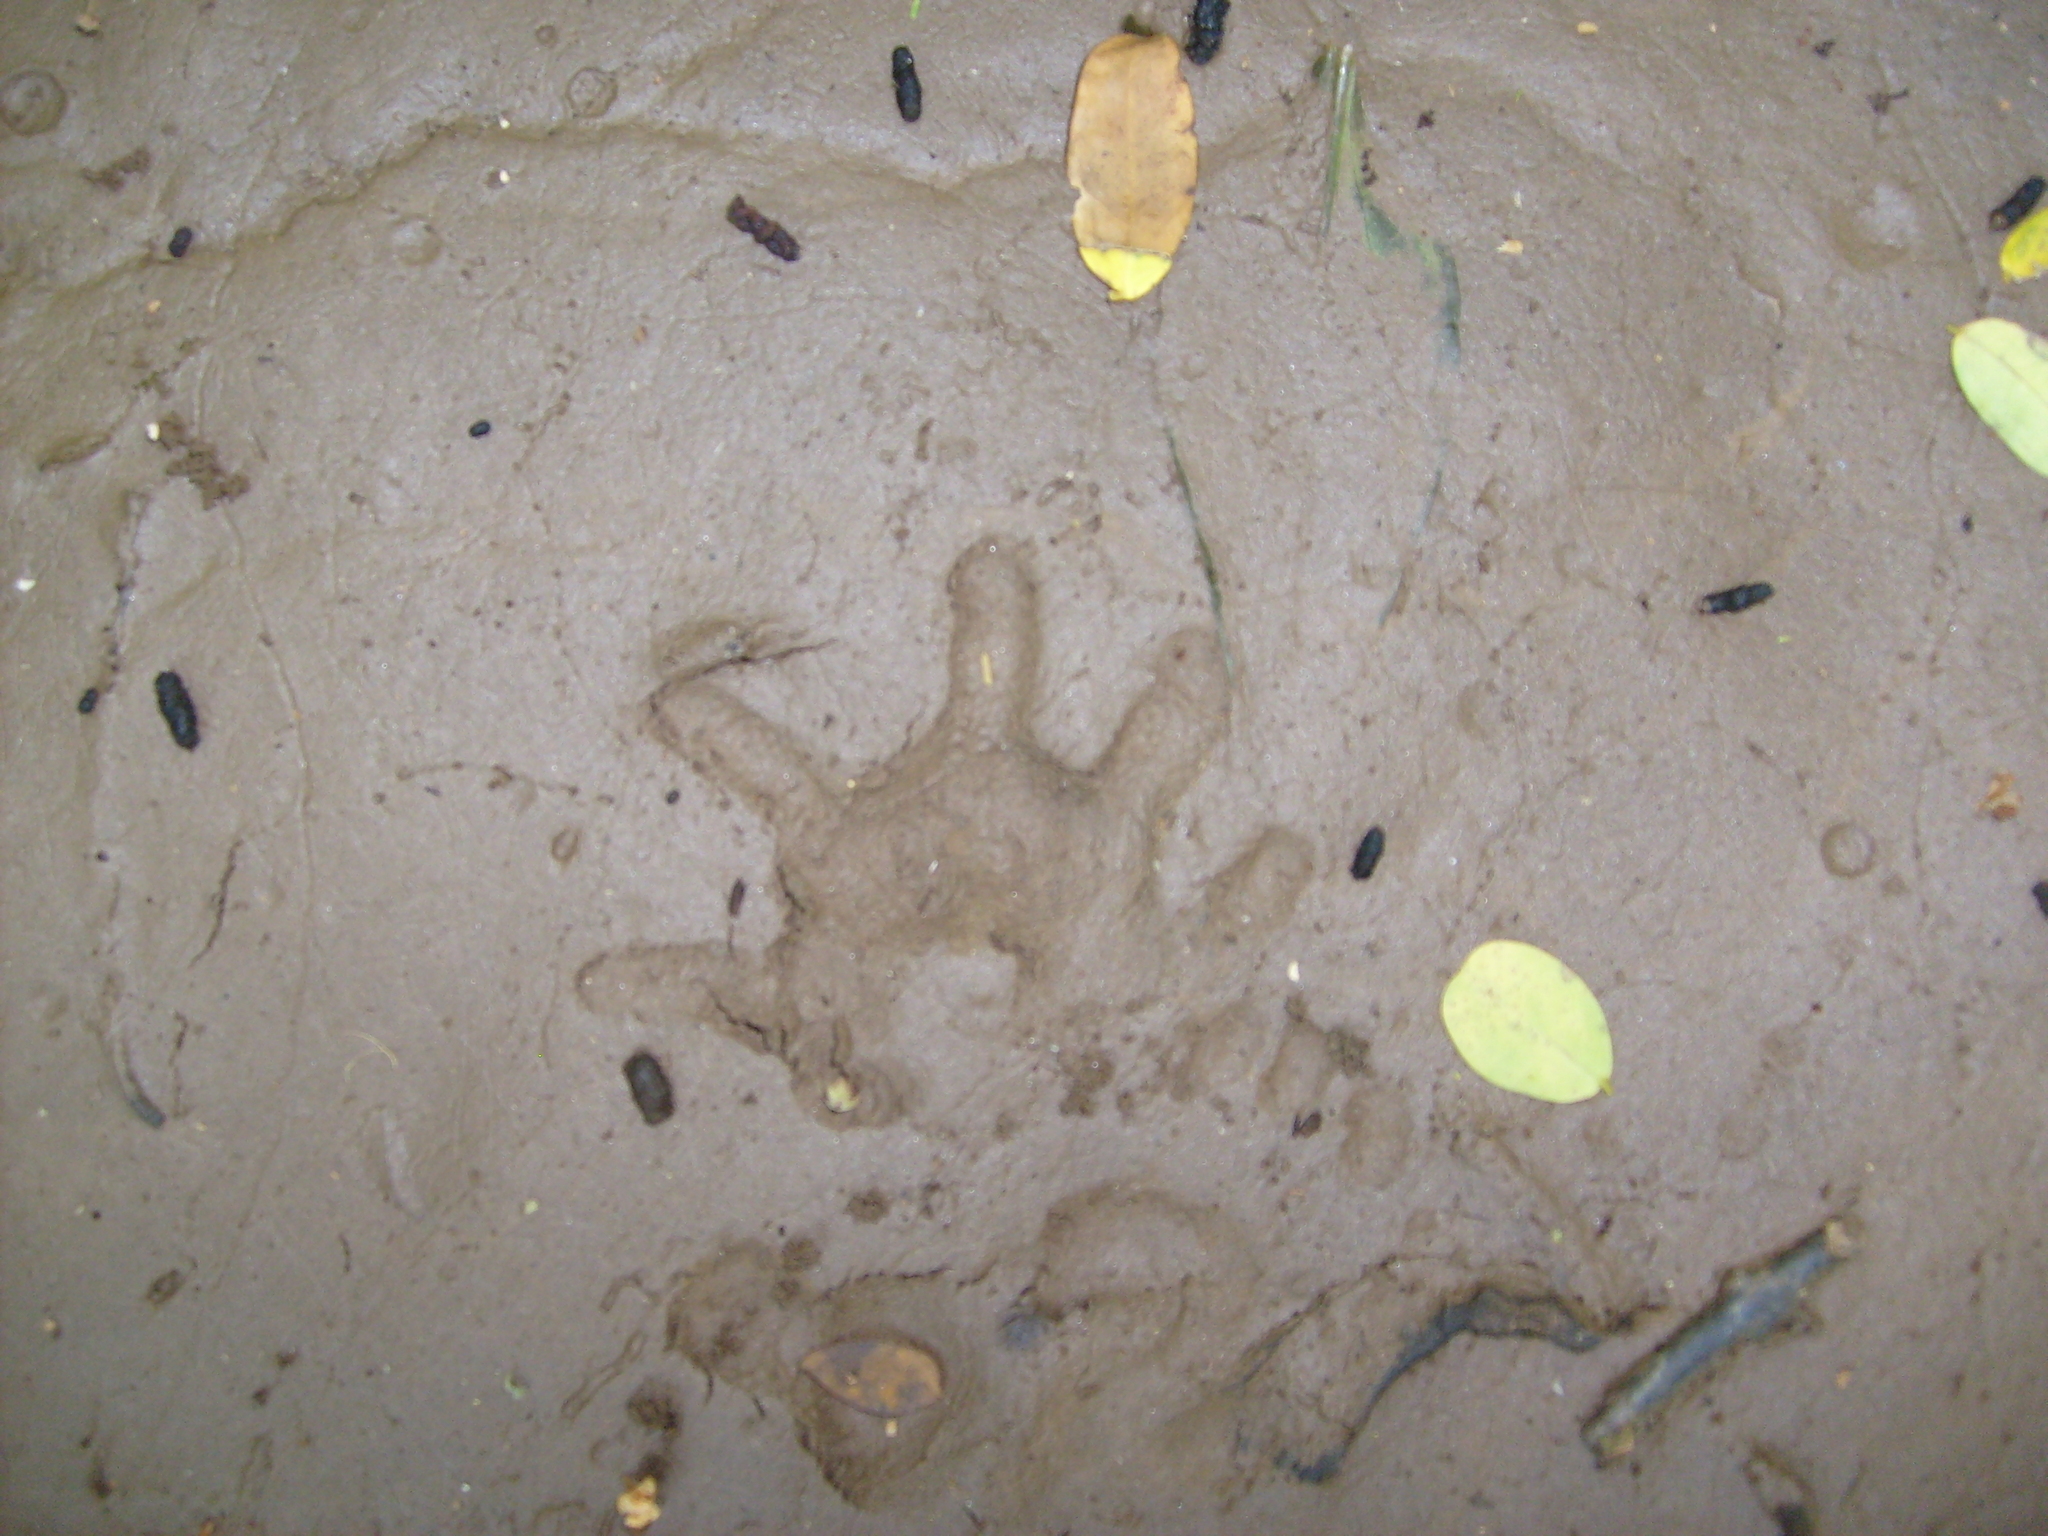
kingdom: Animalia
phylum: Chordata
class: Mammalia
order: Didelphimorphia
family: Didelphidae
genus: Didelphis
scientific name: Didelphis virginiana
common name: Virginia opossum
